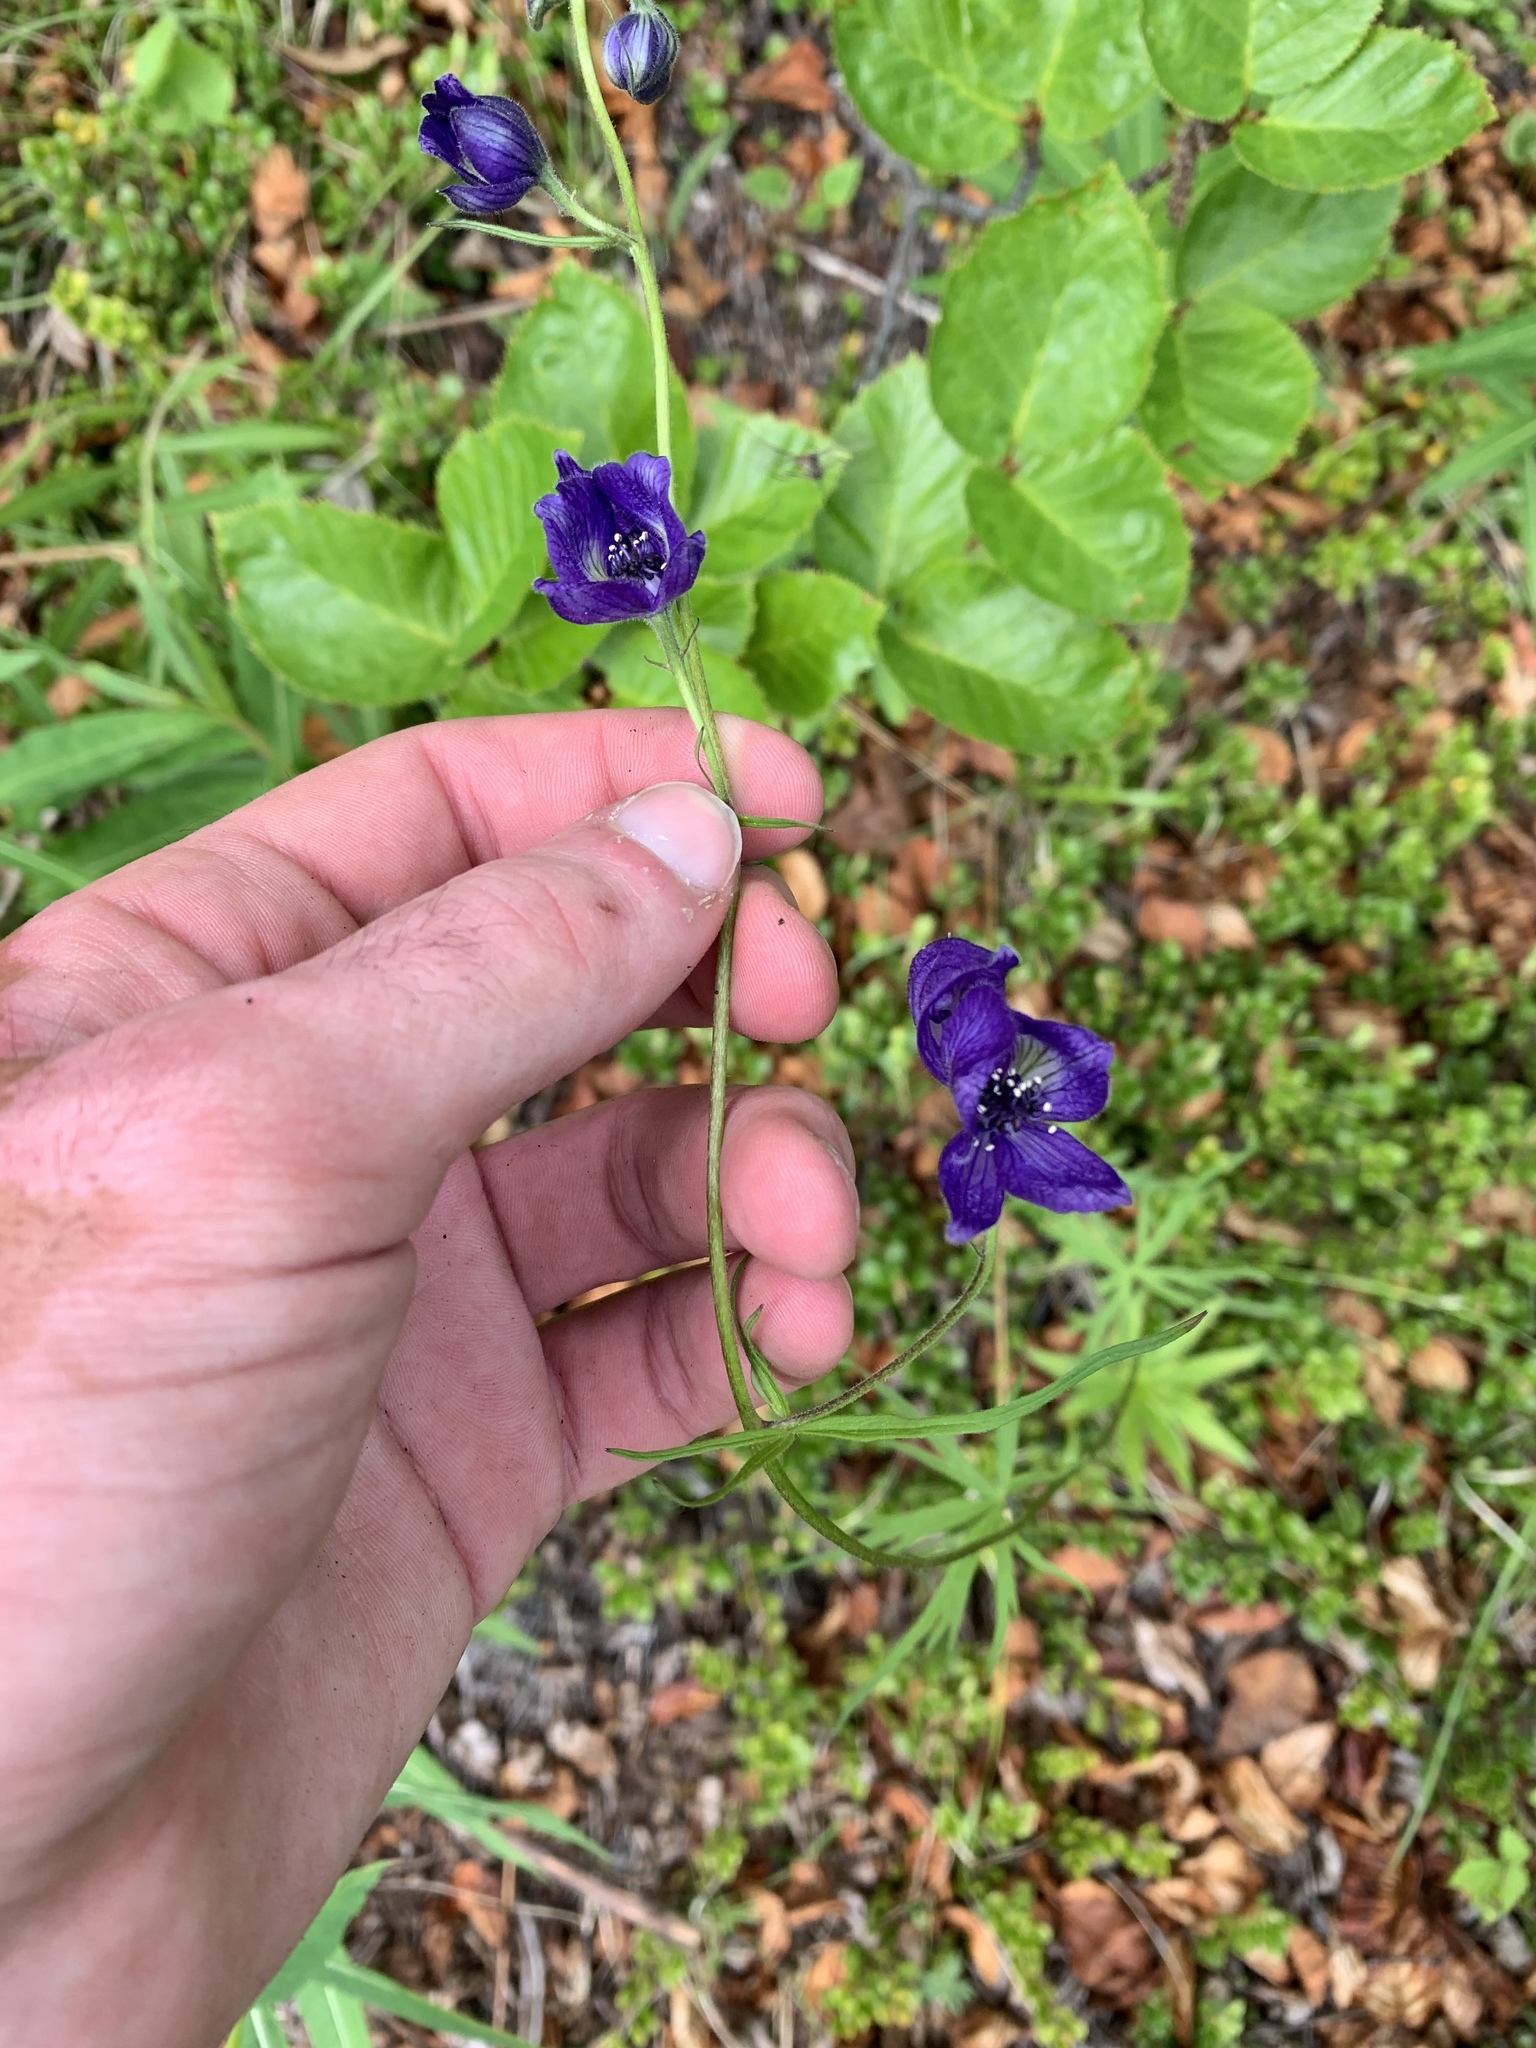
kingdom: Plantae
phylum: Tracheophyta
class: Magnoliopsida
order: Ranunculales
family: Ranunculaceae
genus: Aconitum
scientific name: Aconitum delphiniifolium
